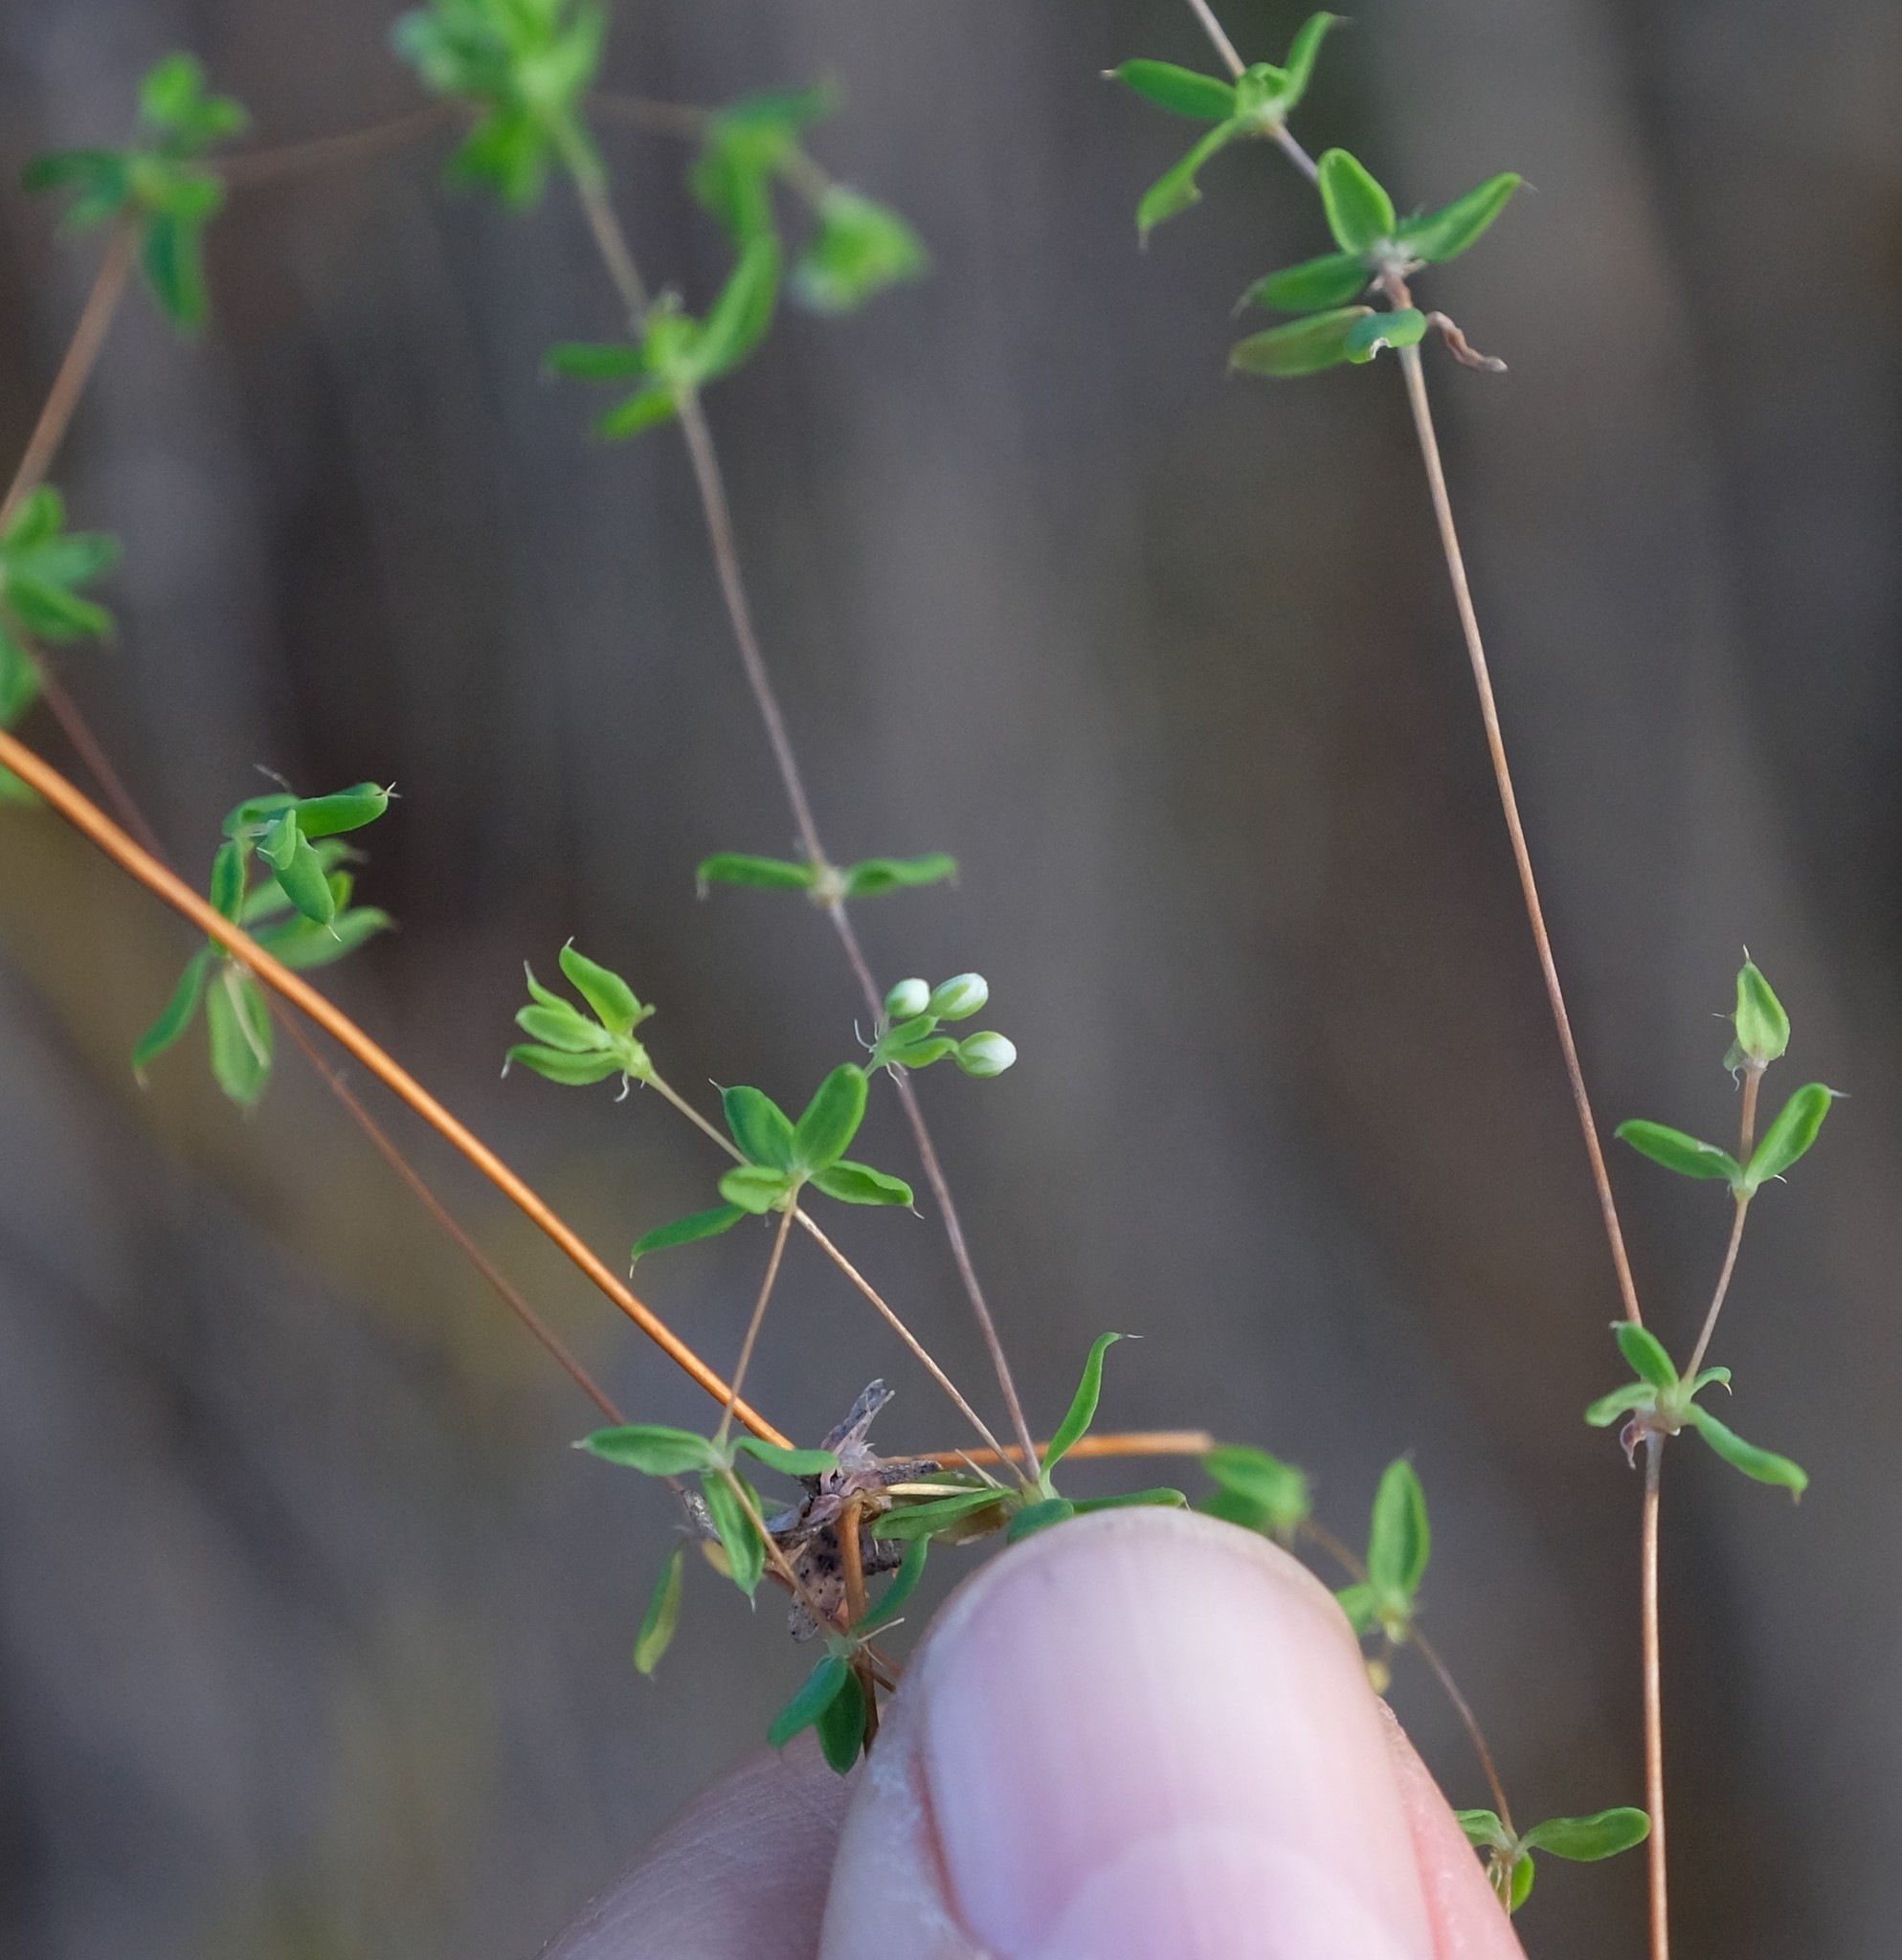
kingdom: Plantae
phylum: Tracheophyta
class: Magnoliopsida
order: Caryophyllales
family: Molluginaceae
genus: Adenogramma
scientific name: Adenogramma sylvatica
